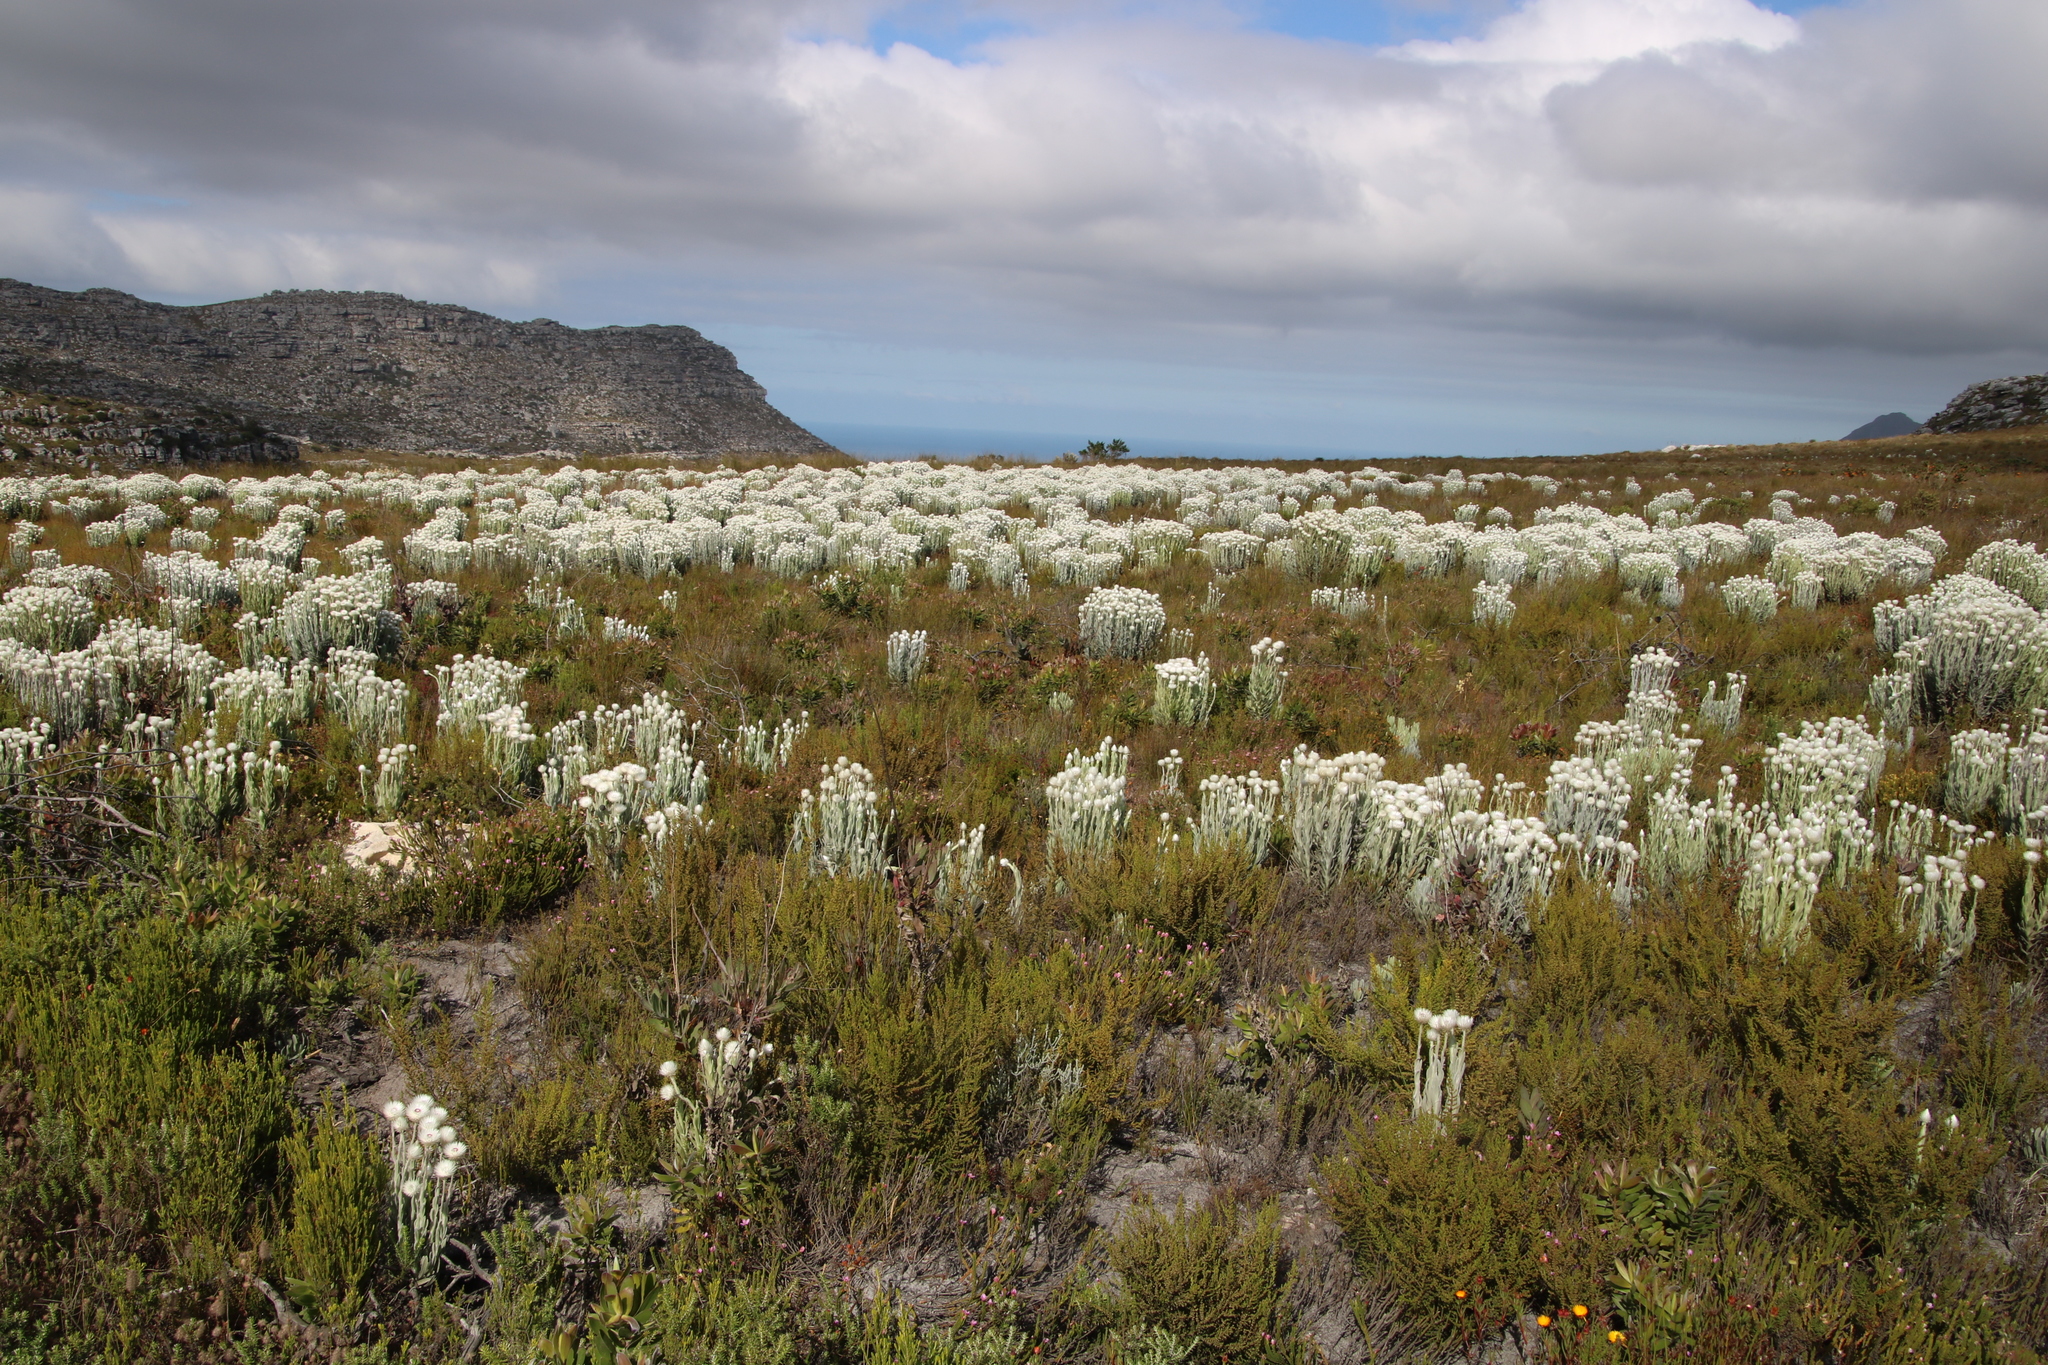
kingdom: Plantae
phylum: Tracheophyta
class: Magnoliopsida
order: Asterales
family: Asteraceae
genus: Syncarpha
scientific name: Syncarpha vestita
